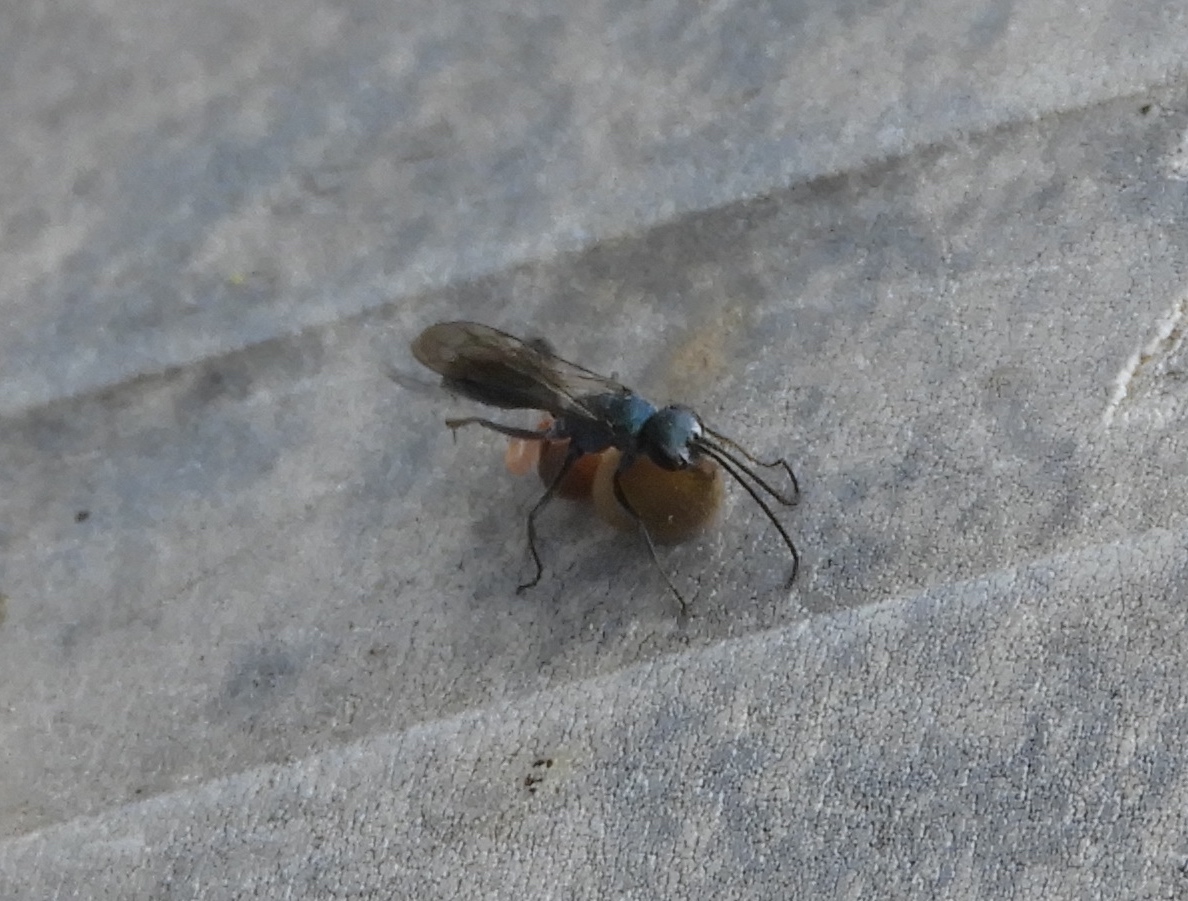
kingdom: Animalia
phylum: Arthropoda
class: Insecta
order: Hymenoptera
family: Pompilidae
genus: Auplopus
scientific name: Auplopus
